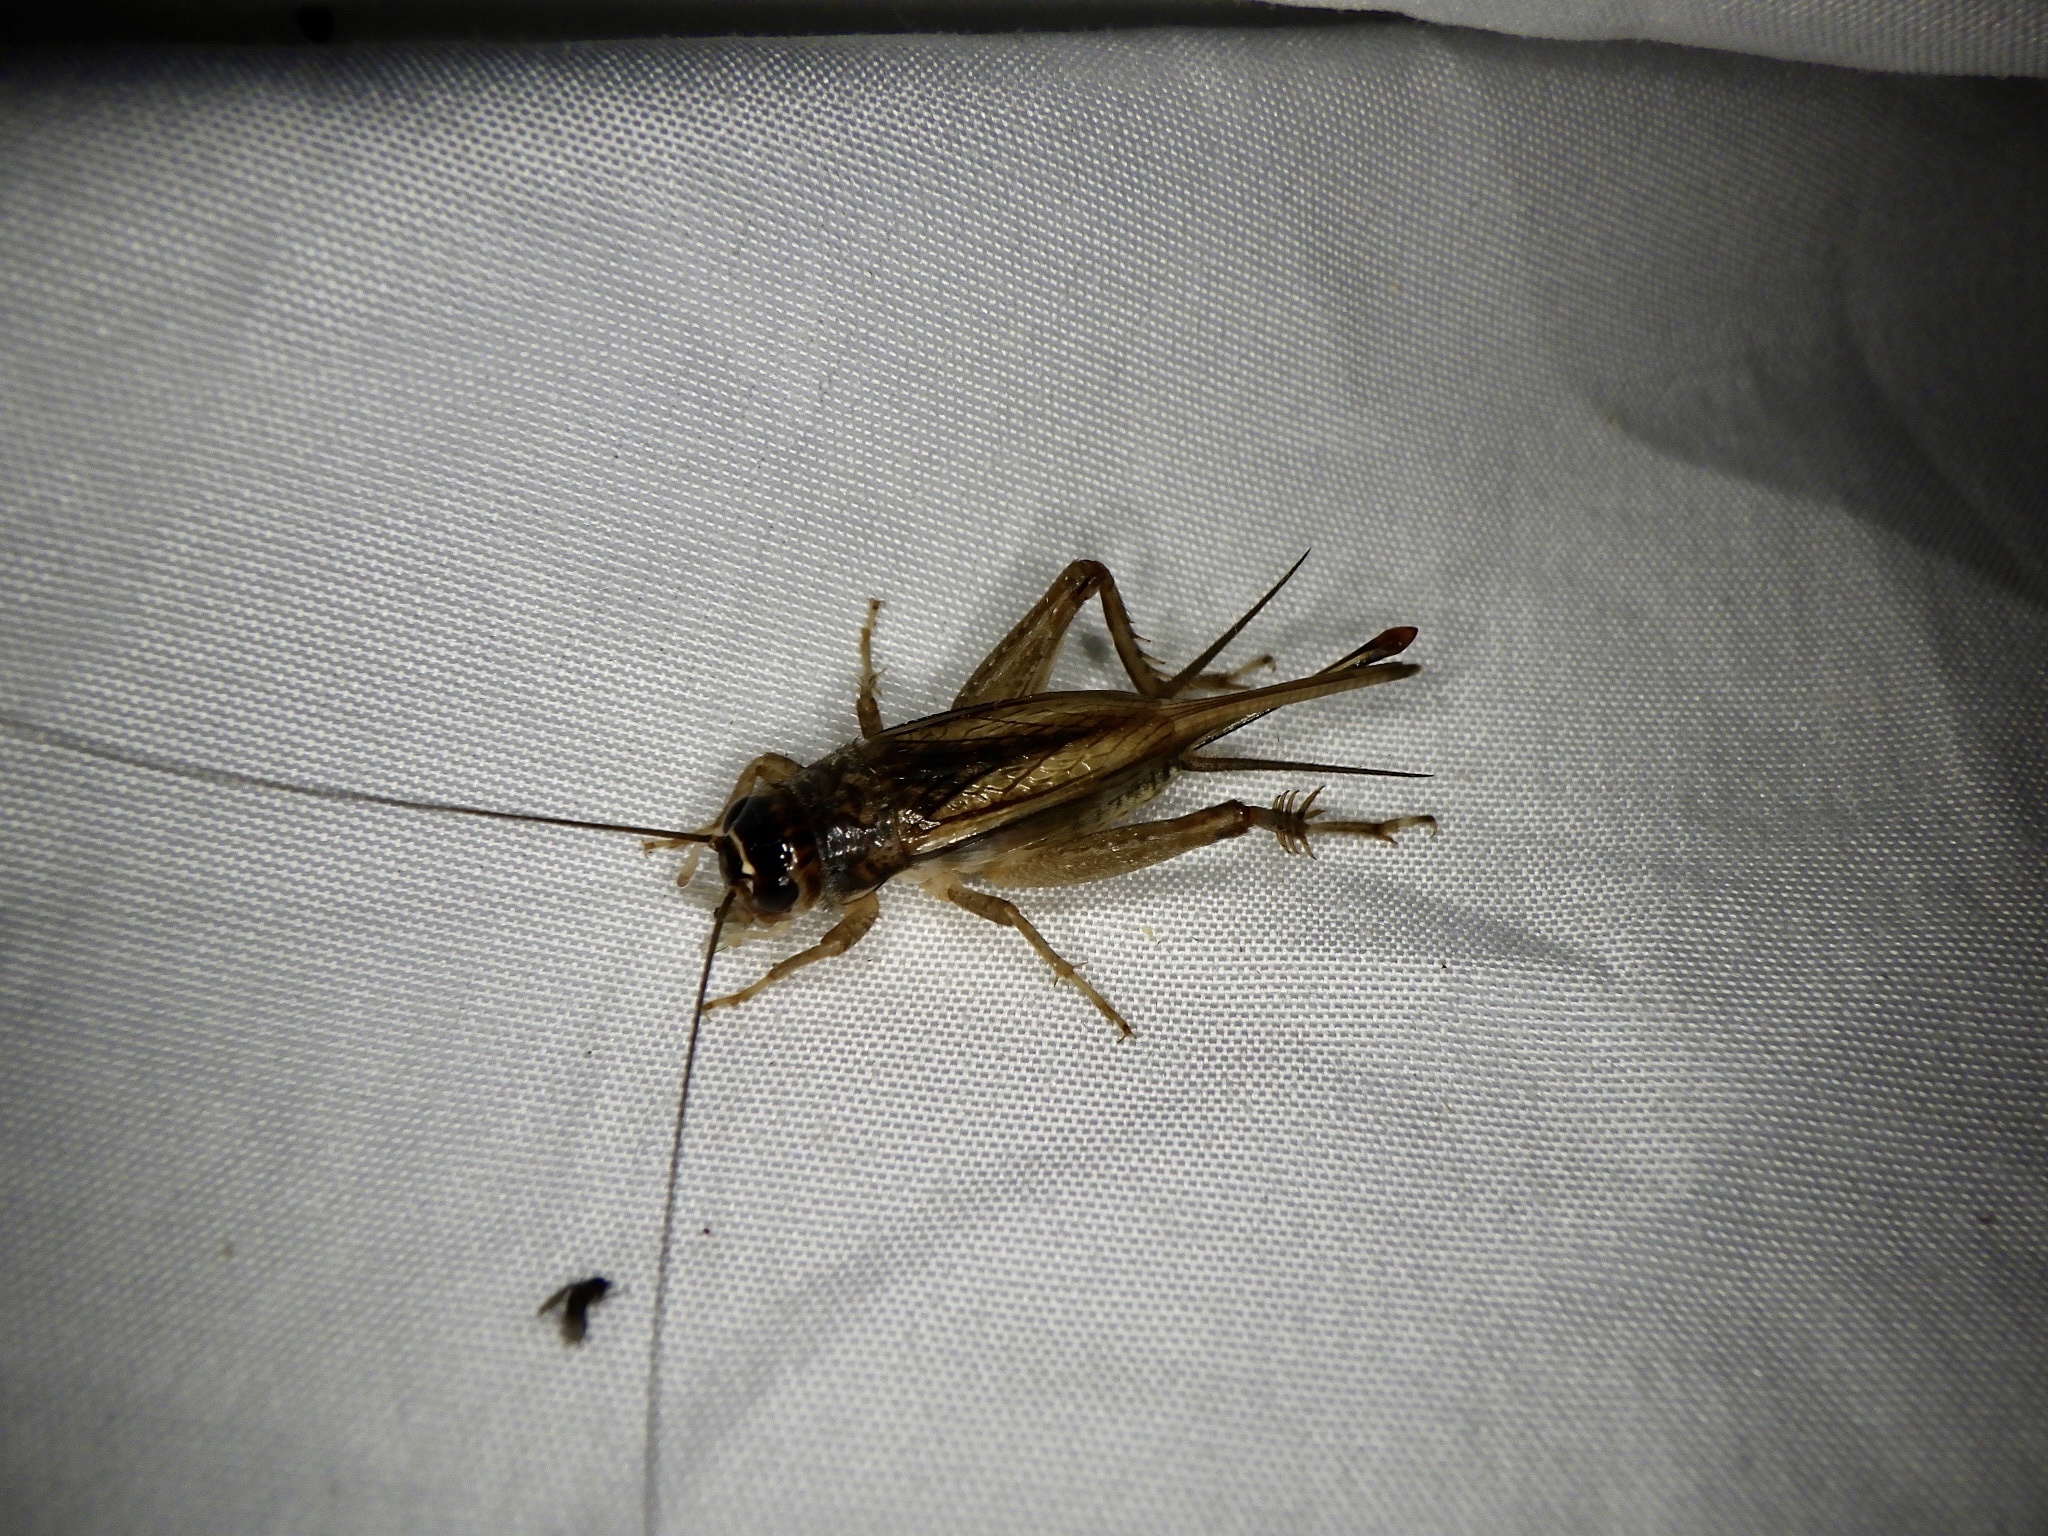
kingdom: Animalia
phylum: Arthropoda
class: Insecta
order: Orthoptera
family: Gryllidae
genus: Svercacheta
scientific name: Svercacheta siamensis
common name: Cricket
